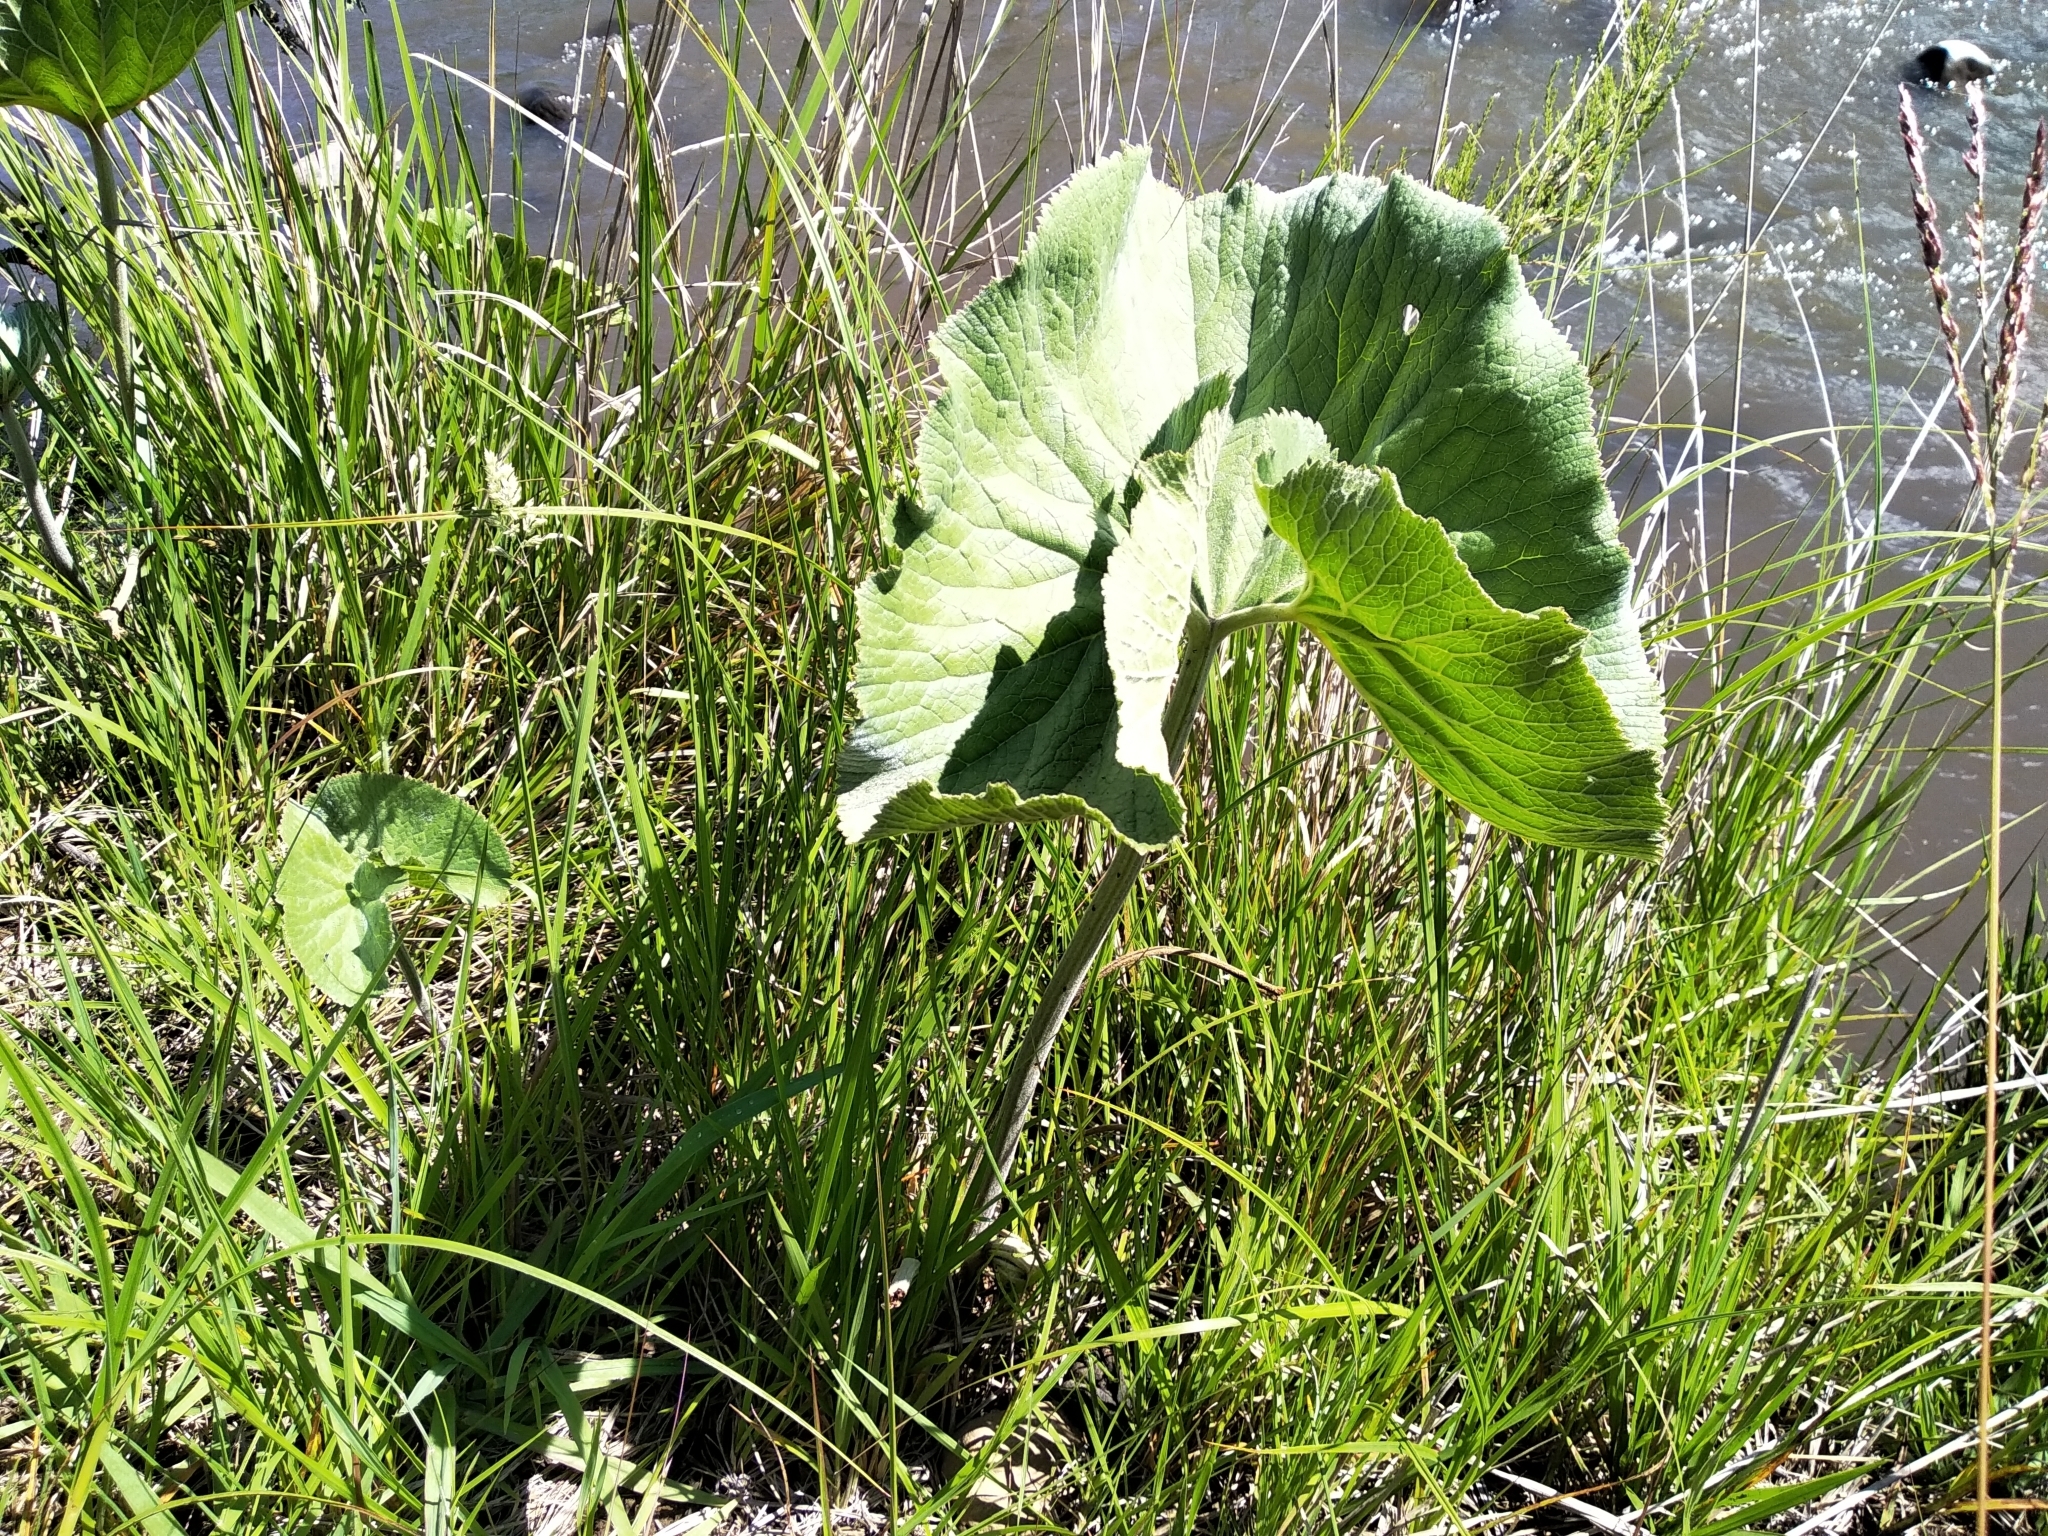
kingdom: Plantae
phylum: Tracheophyta
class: Magnoliopsida
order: Gunnerales
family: Gunneraceae
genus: Gunnera
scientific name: Gunnera perpensa
